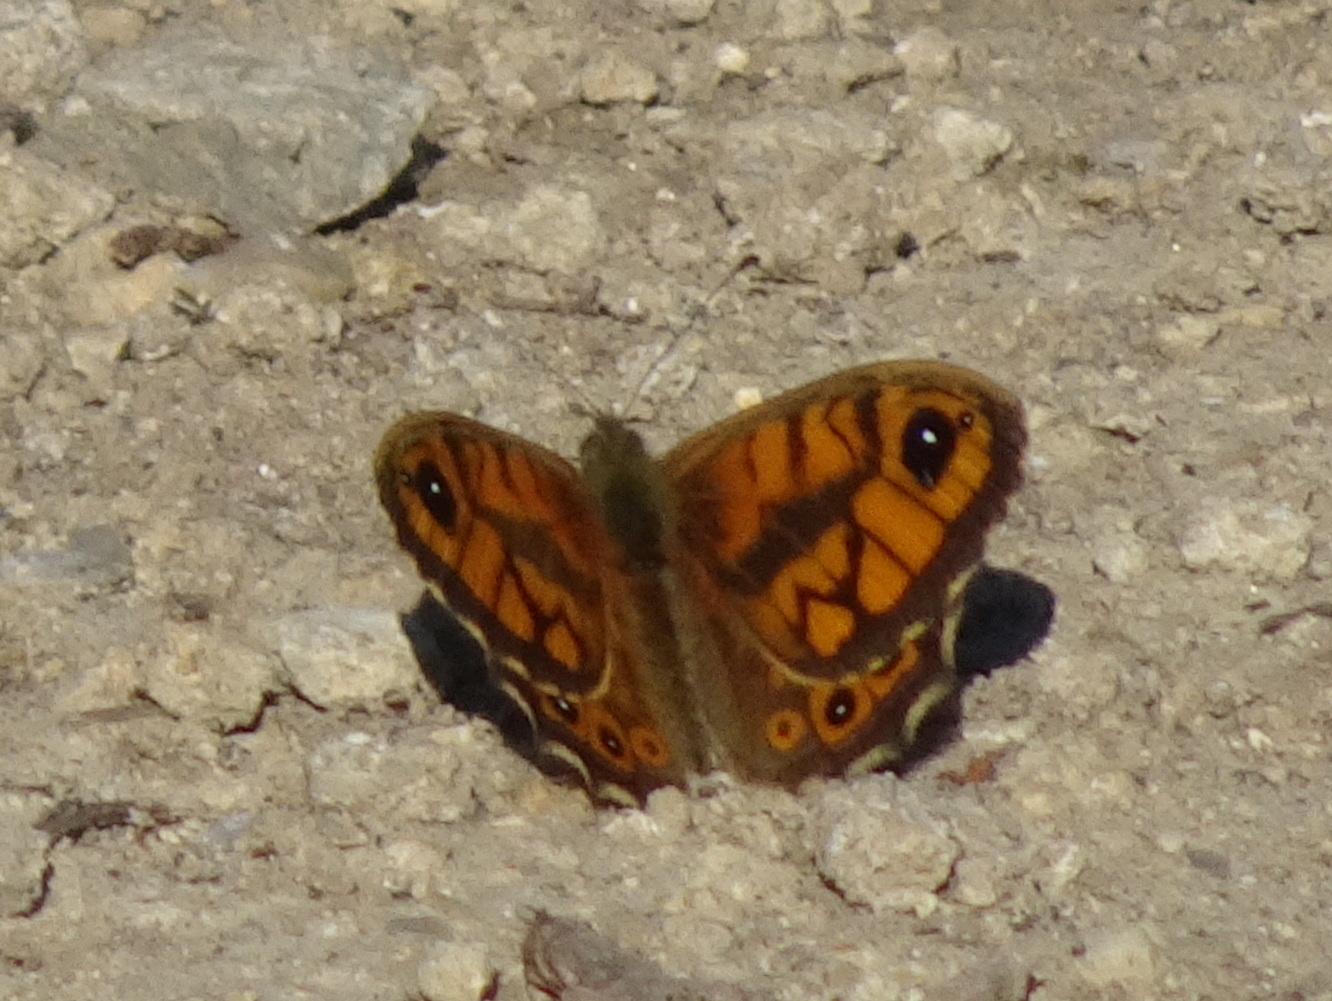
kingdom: Animalia
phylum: Arthropoda
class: Insecta
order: Lepidoptera
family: Nymphalidae
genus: Pararge
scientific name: Pararge Lasiommata megera
